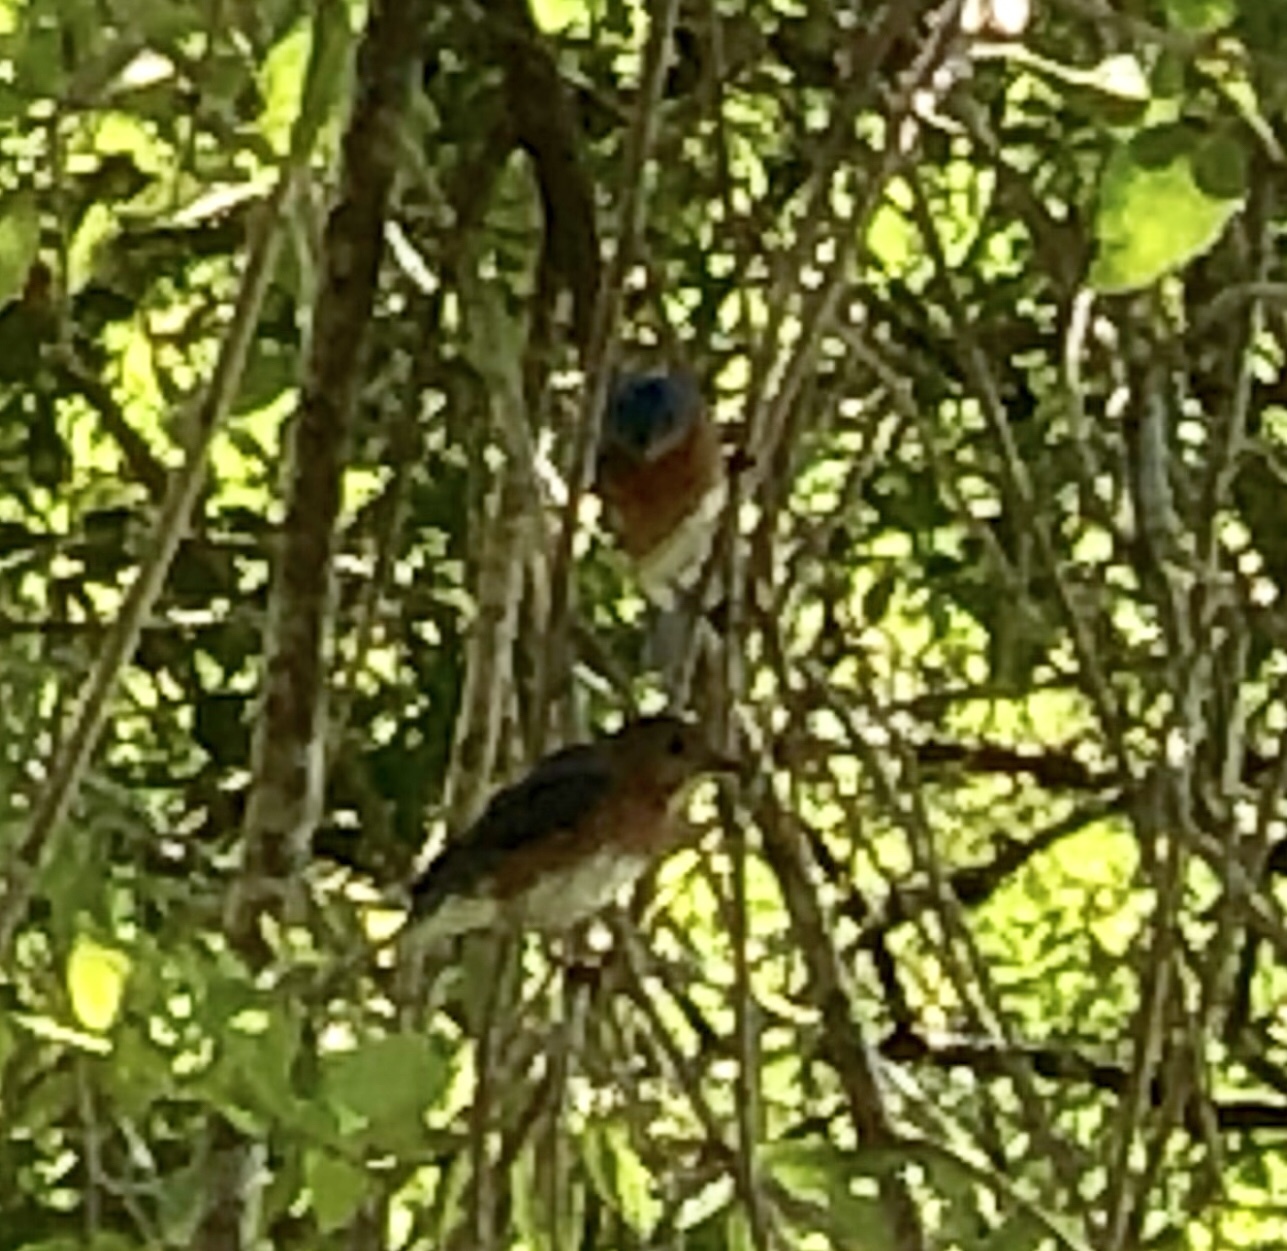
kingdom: Animalia
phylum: Chordata
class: Aves
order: Passeriformes
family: Turdidae
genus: Sialia
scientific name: Sialia sialis
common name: Eastern bluebird
